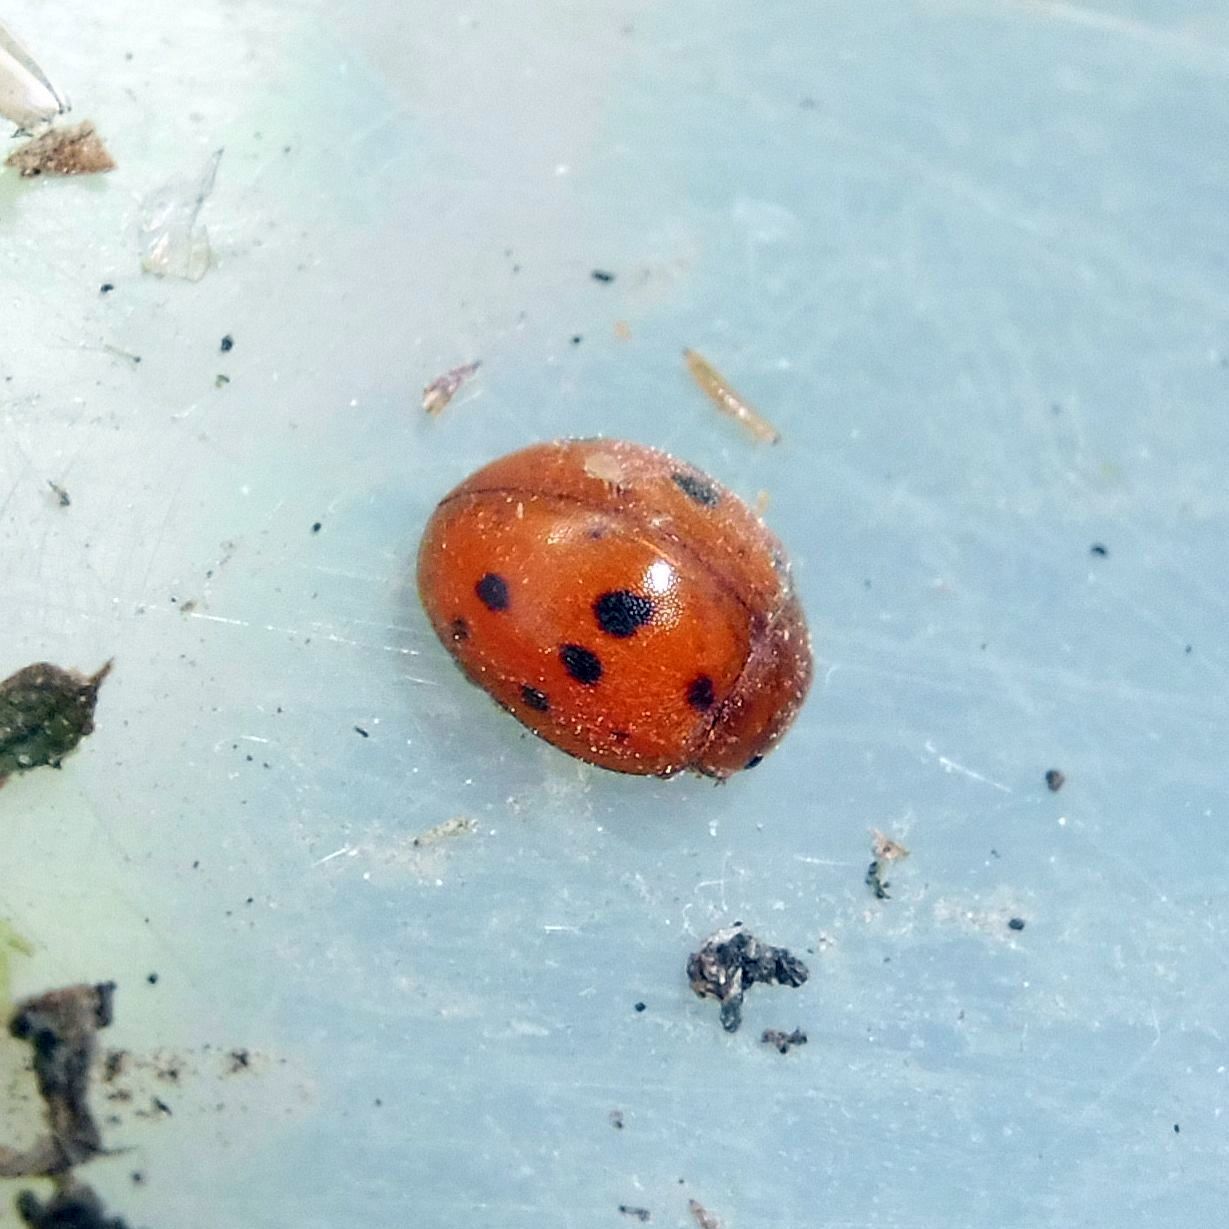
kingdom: Animalia
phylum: Arthropoda
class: Insecta
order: Coleoptera
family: Coccinellidae
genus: Subcoccinella
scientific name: Subcoccinella vigintiquatuorpunctata
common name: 24-spot ladybird
